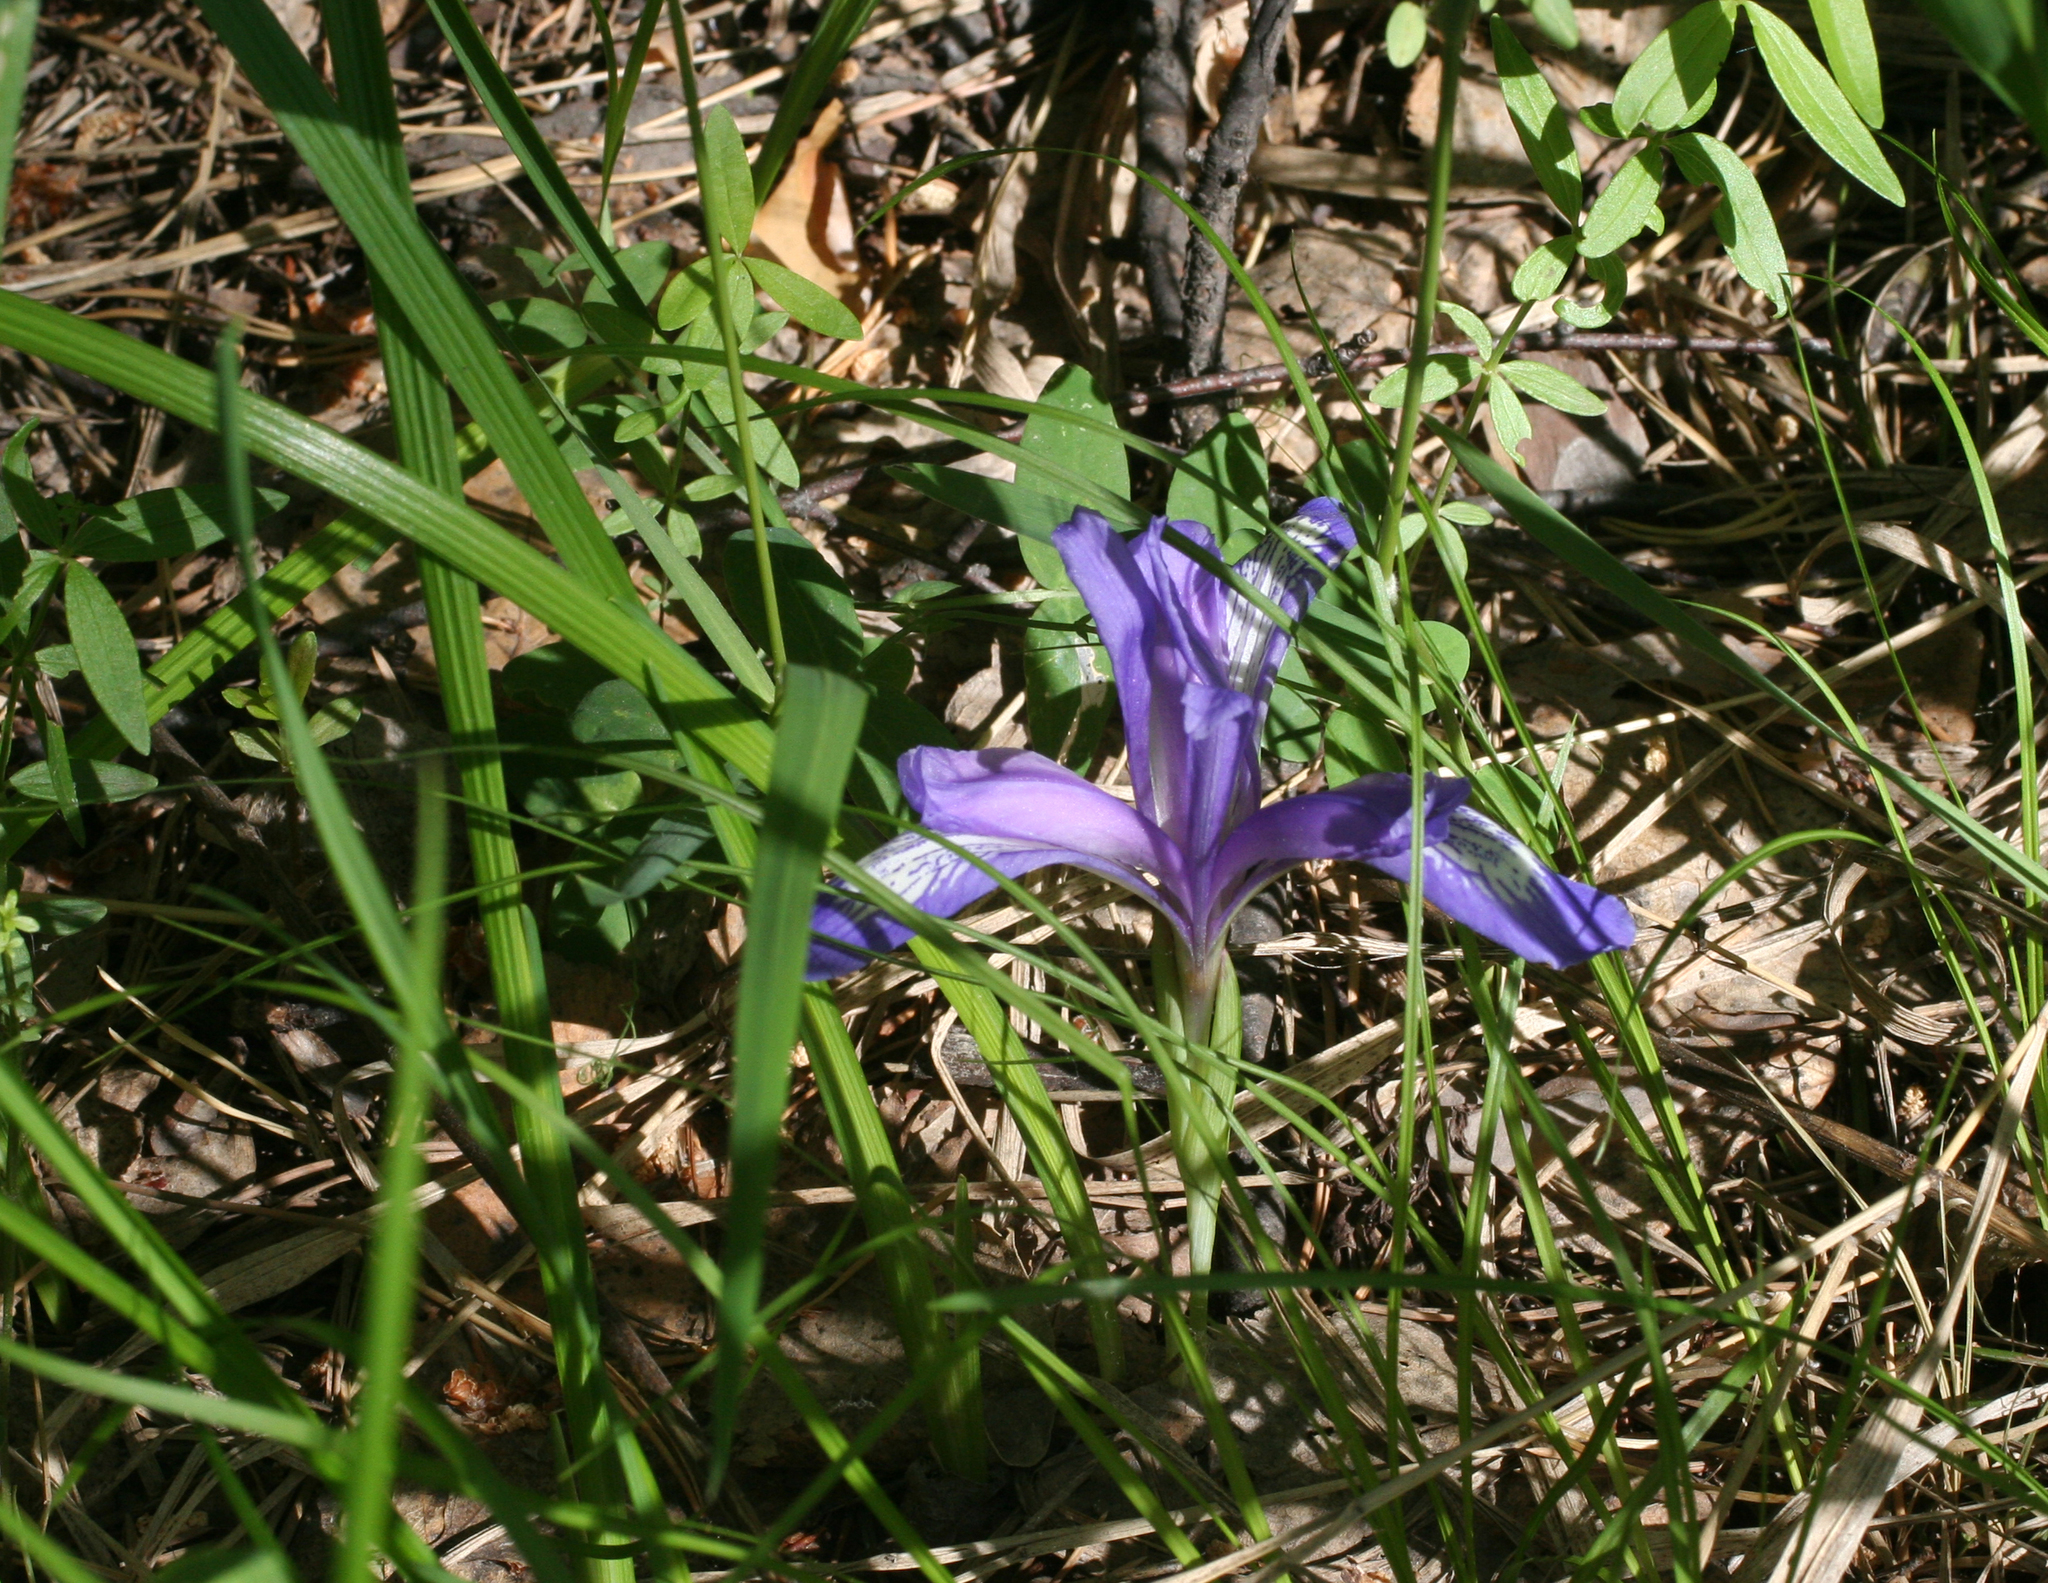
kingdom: Plantae
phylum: Tracheophyta
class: Liliopsida
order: Asparagales
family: Iridaceae
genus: Iris
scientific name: Iris ruthenica
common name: Purple-bract iris
